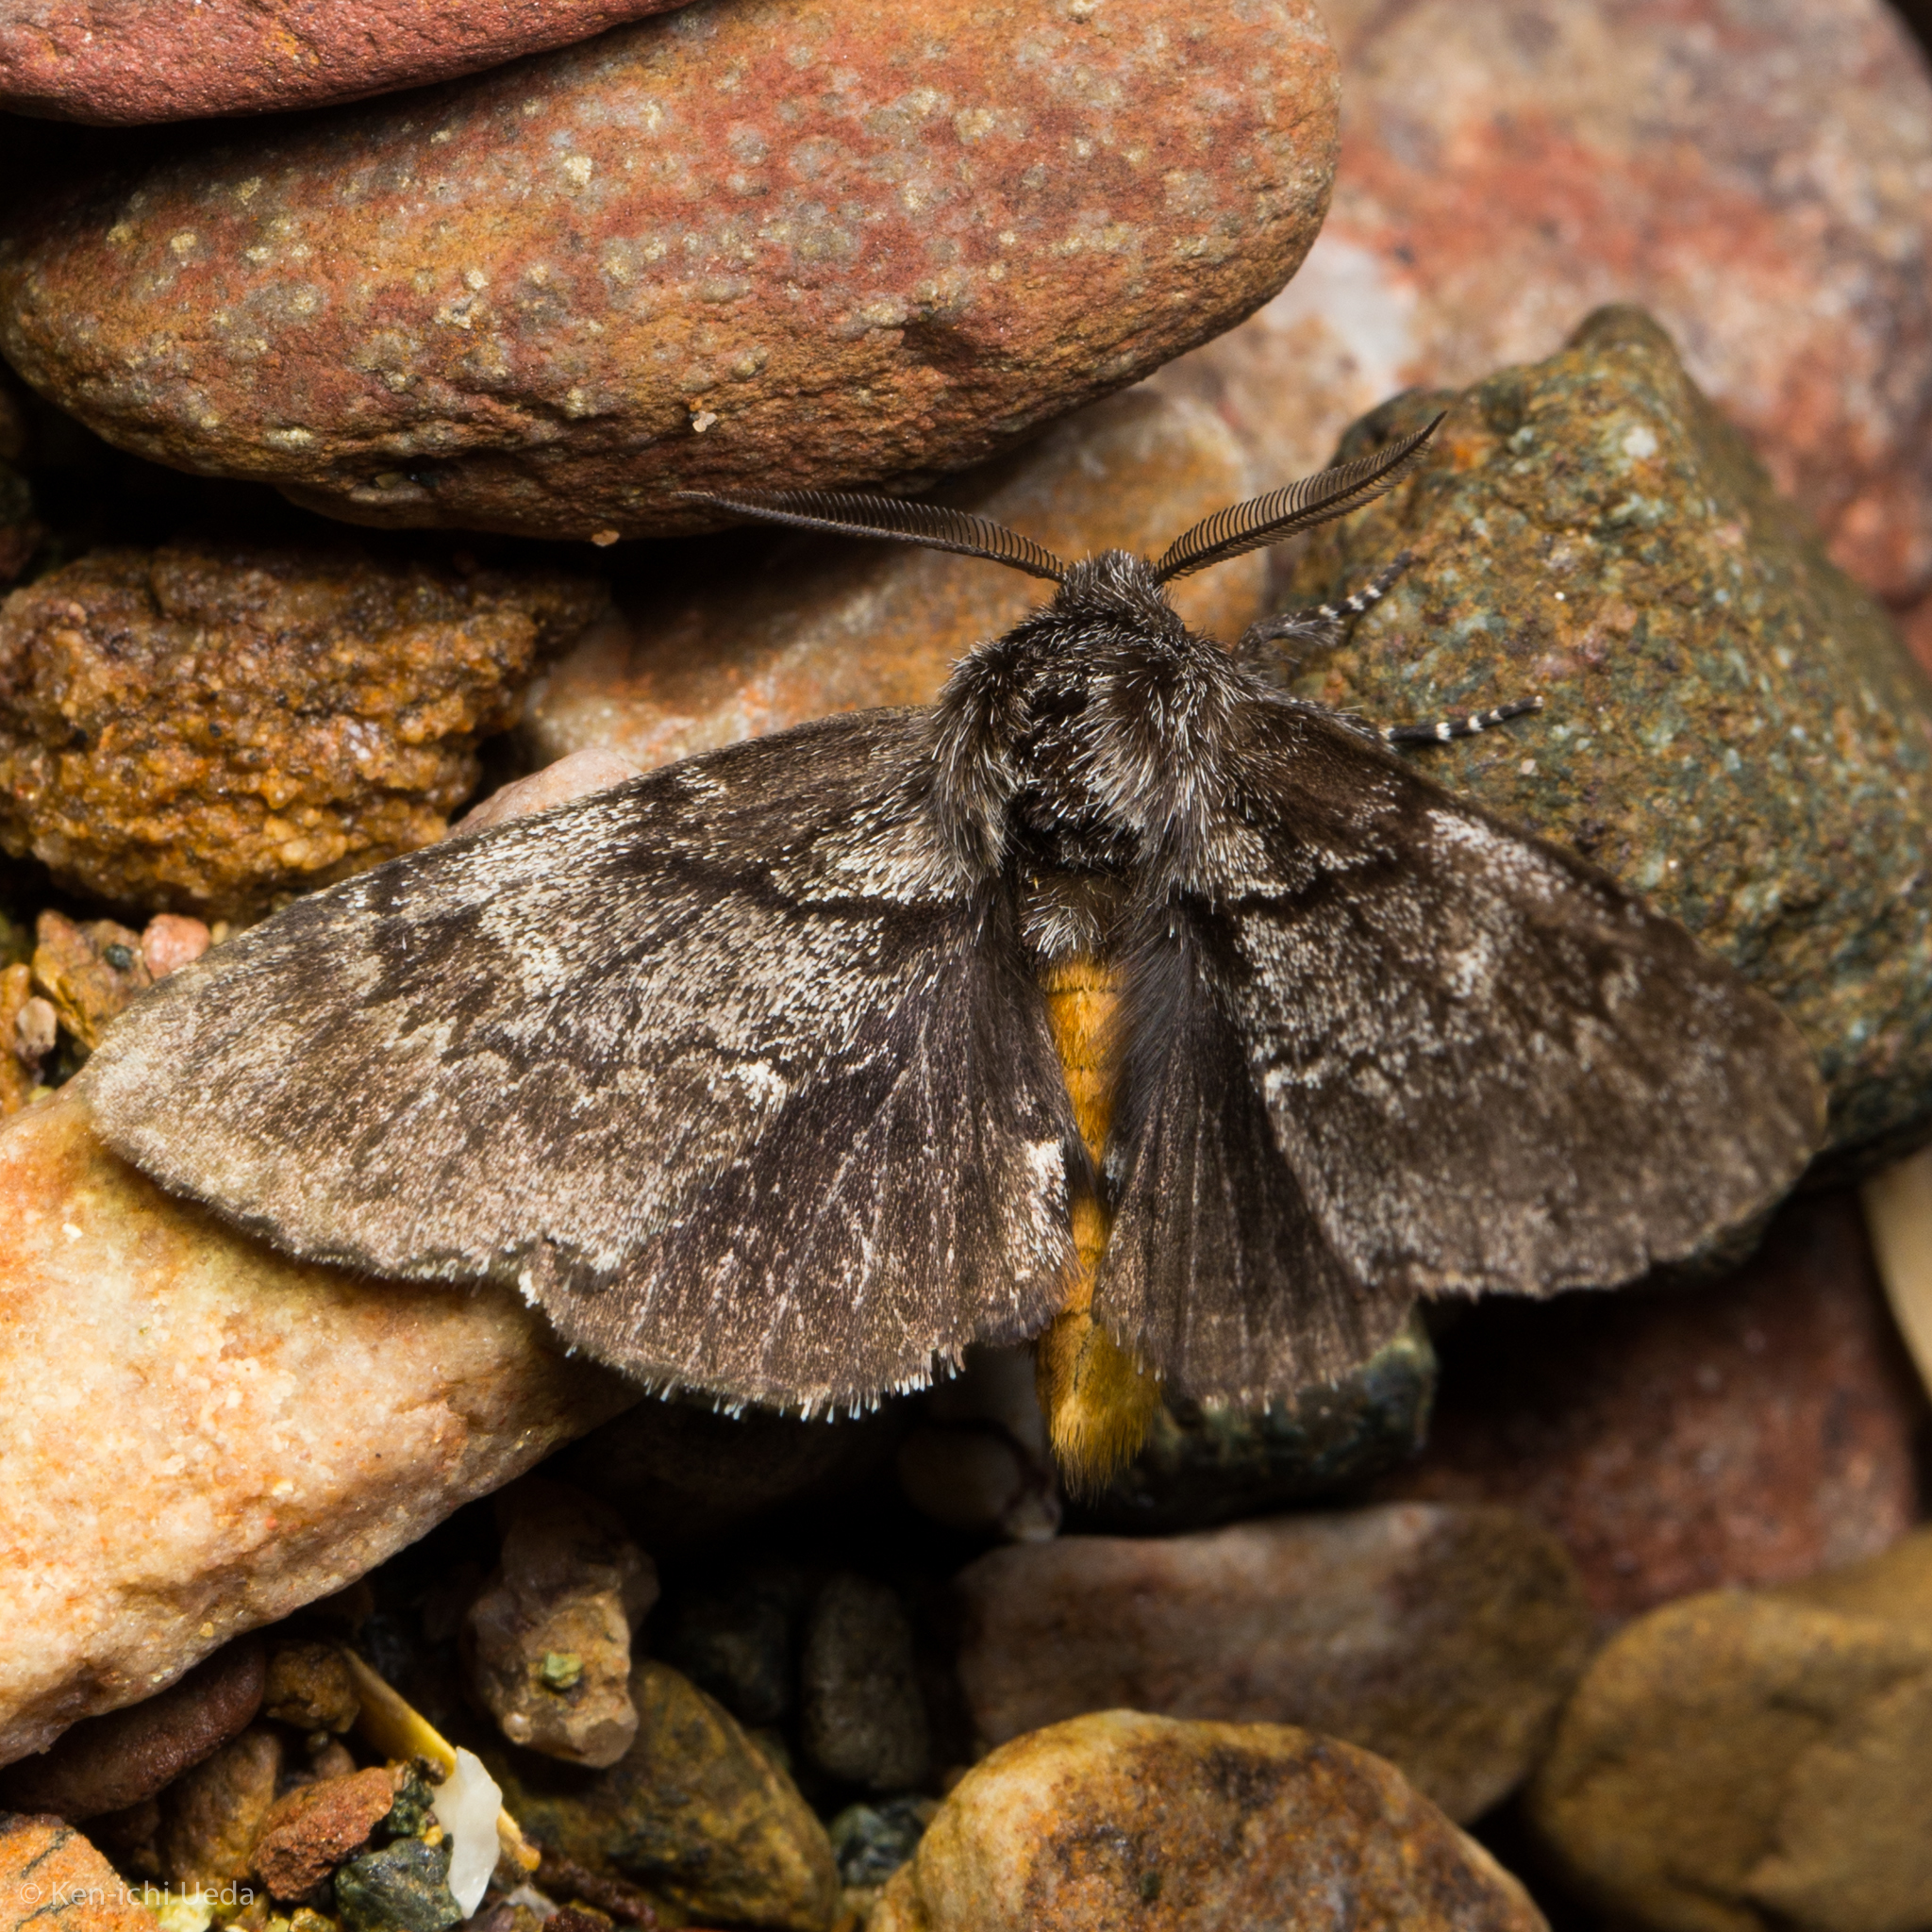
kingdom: Animalia
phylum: Arthropoda
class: Insecta
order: Lepidoptera
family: Notodontidae
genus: Cargida
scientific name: Cargida pyrrha
